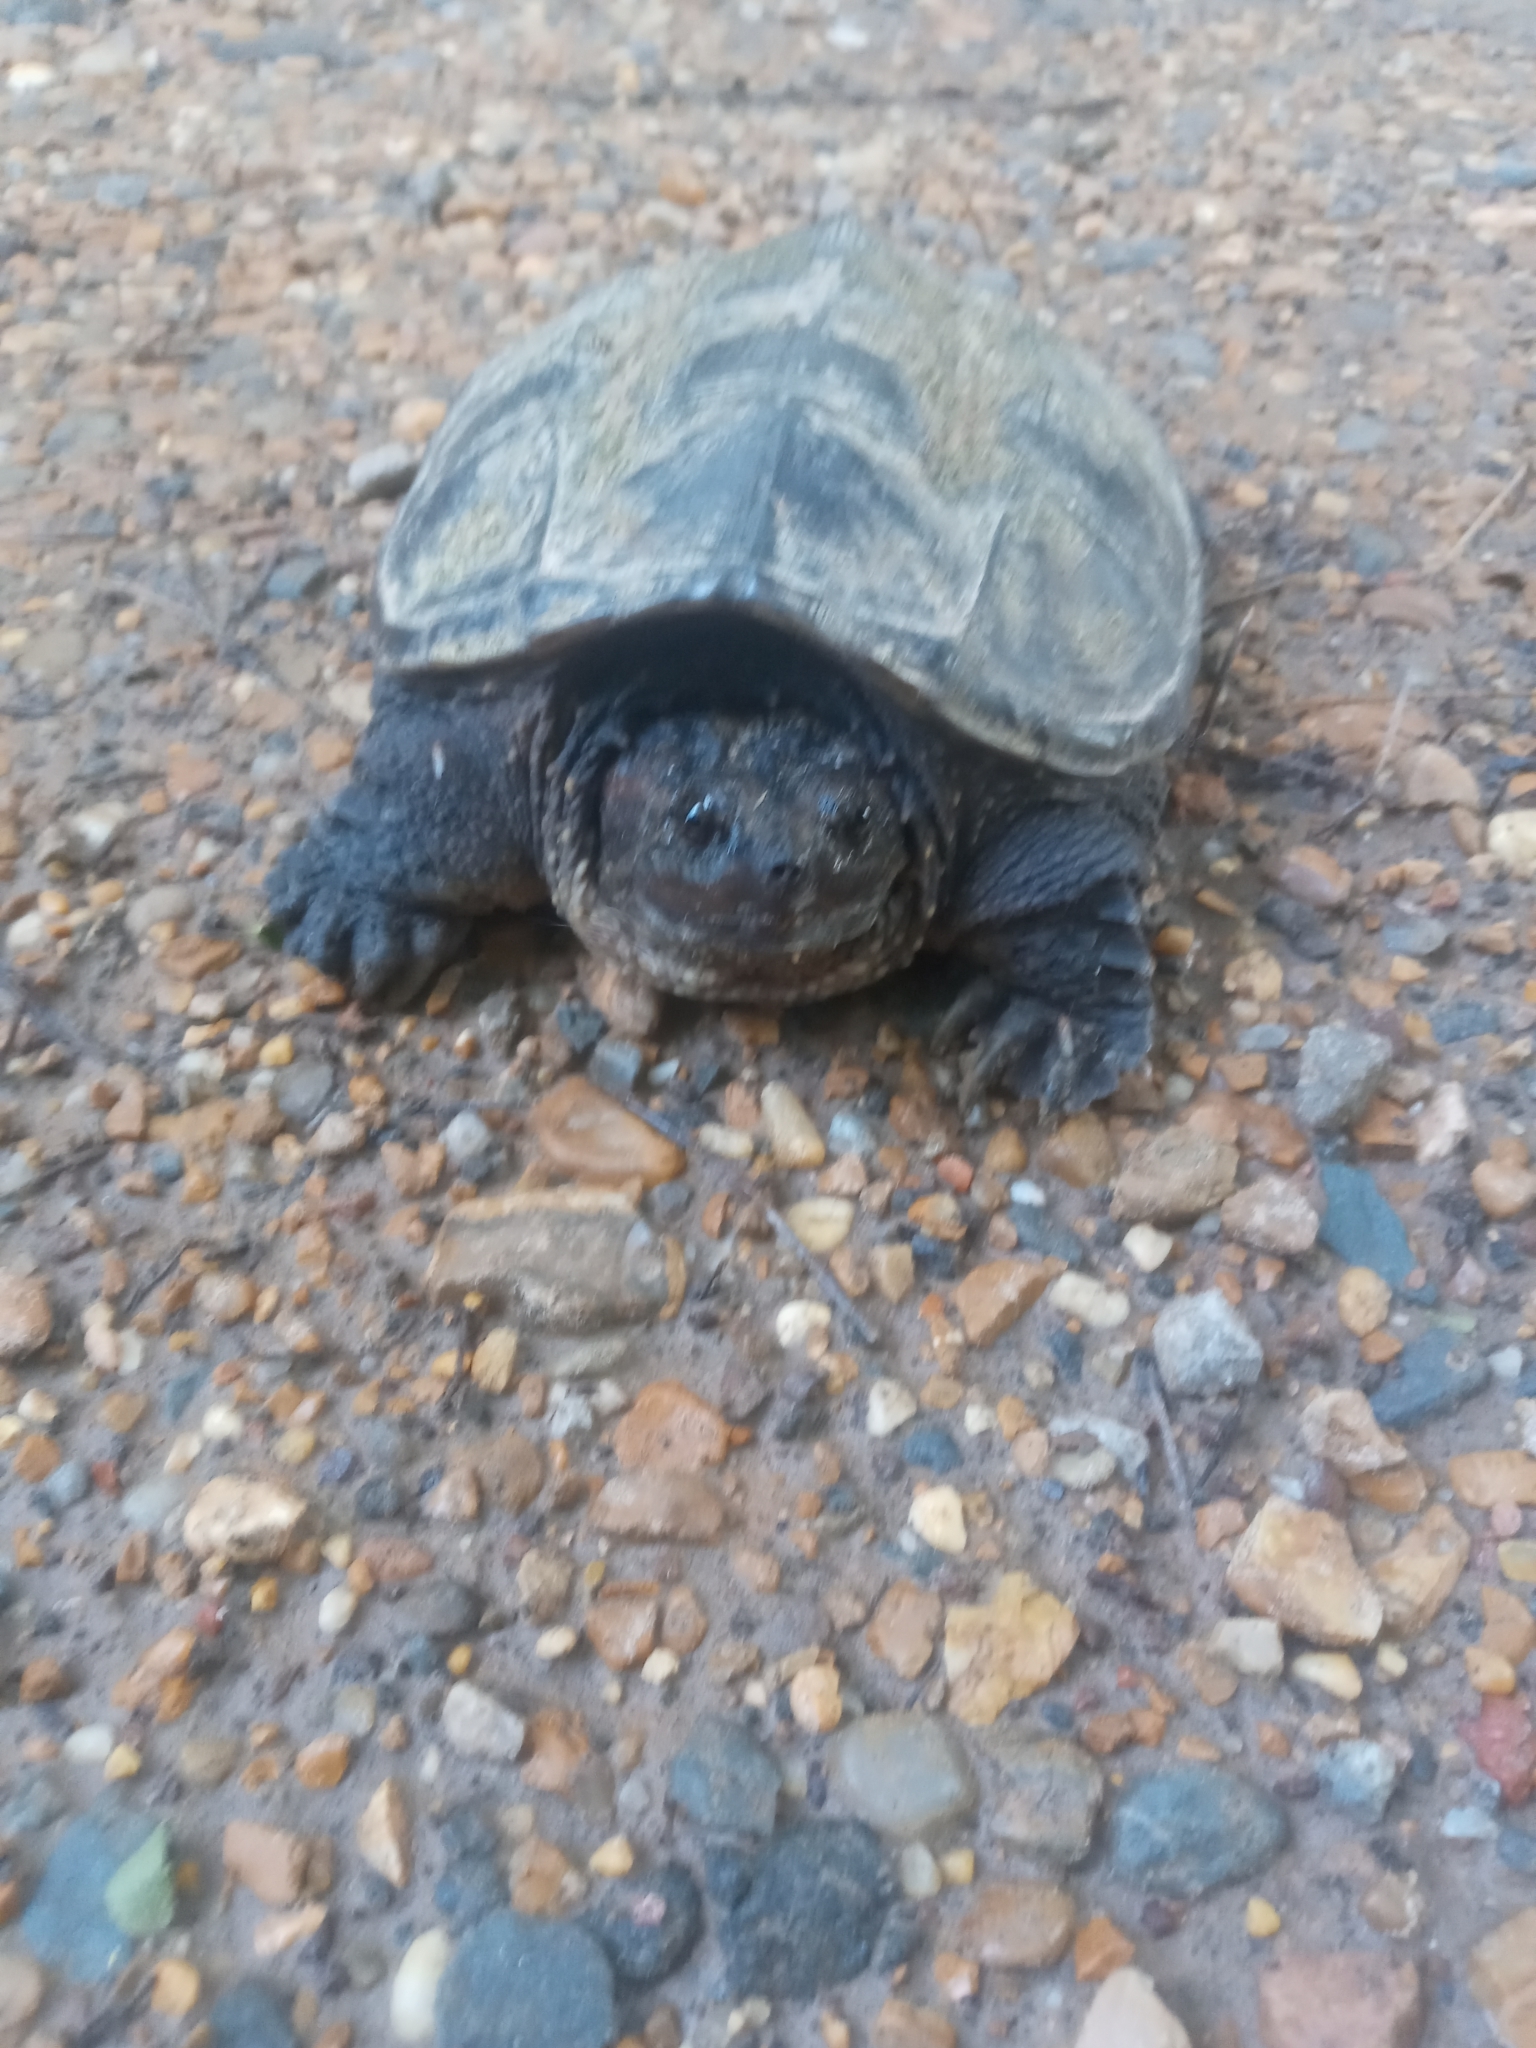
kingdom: Animalia
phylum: Chordata
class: Testudines
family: Chelydridae
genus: Chelydra
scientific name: Chelydra serpentina
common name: Common snapping turtle
